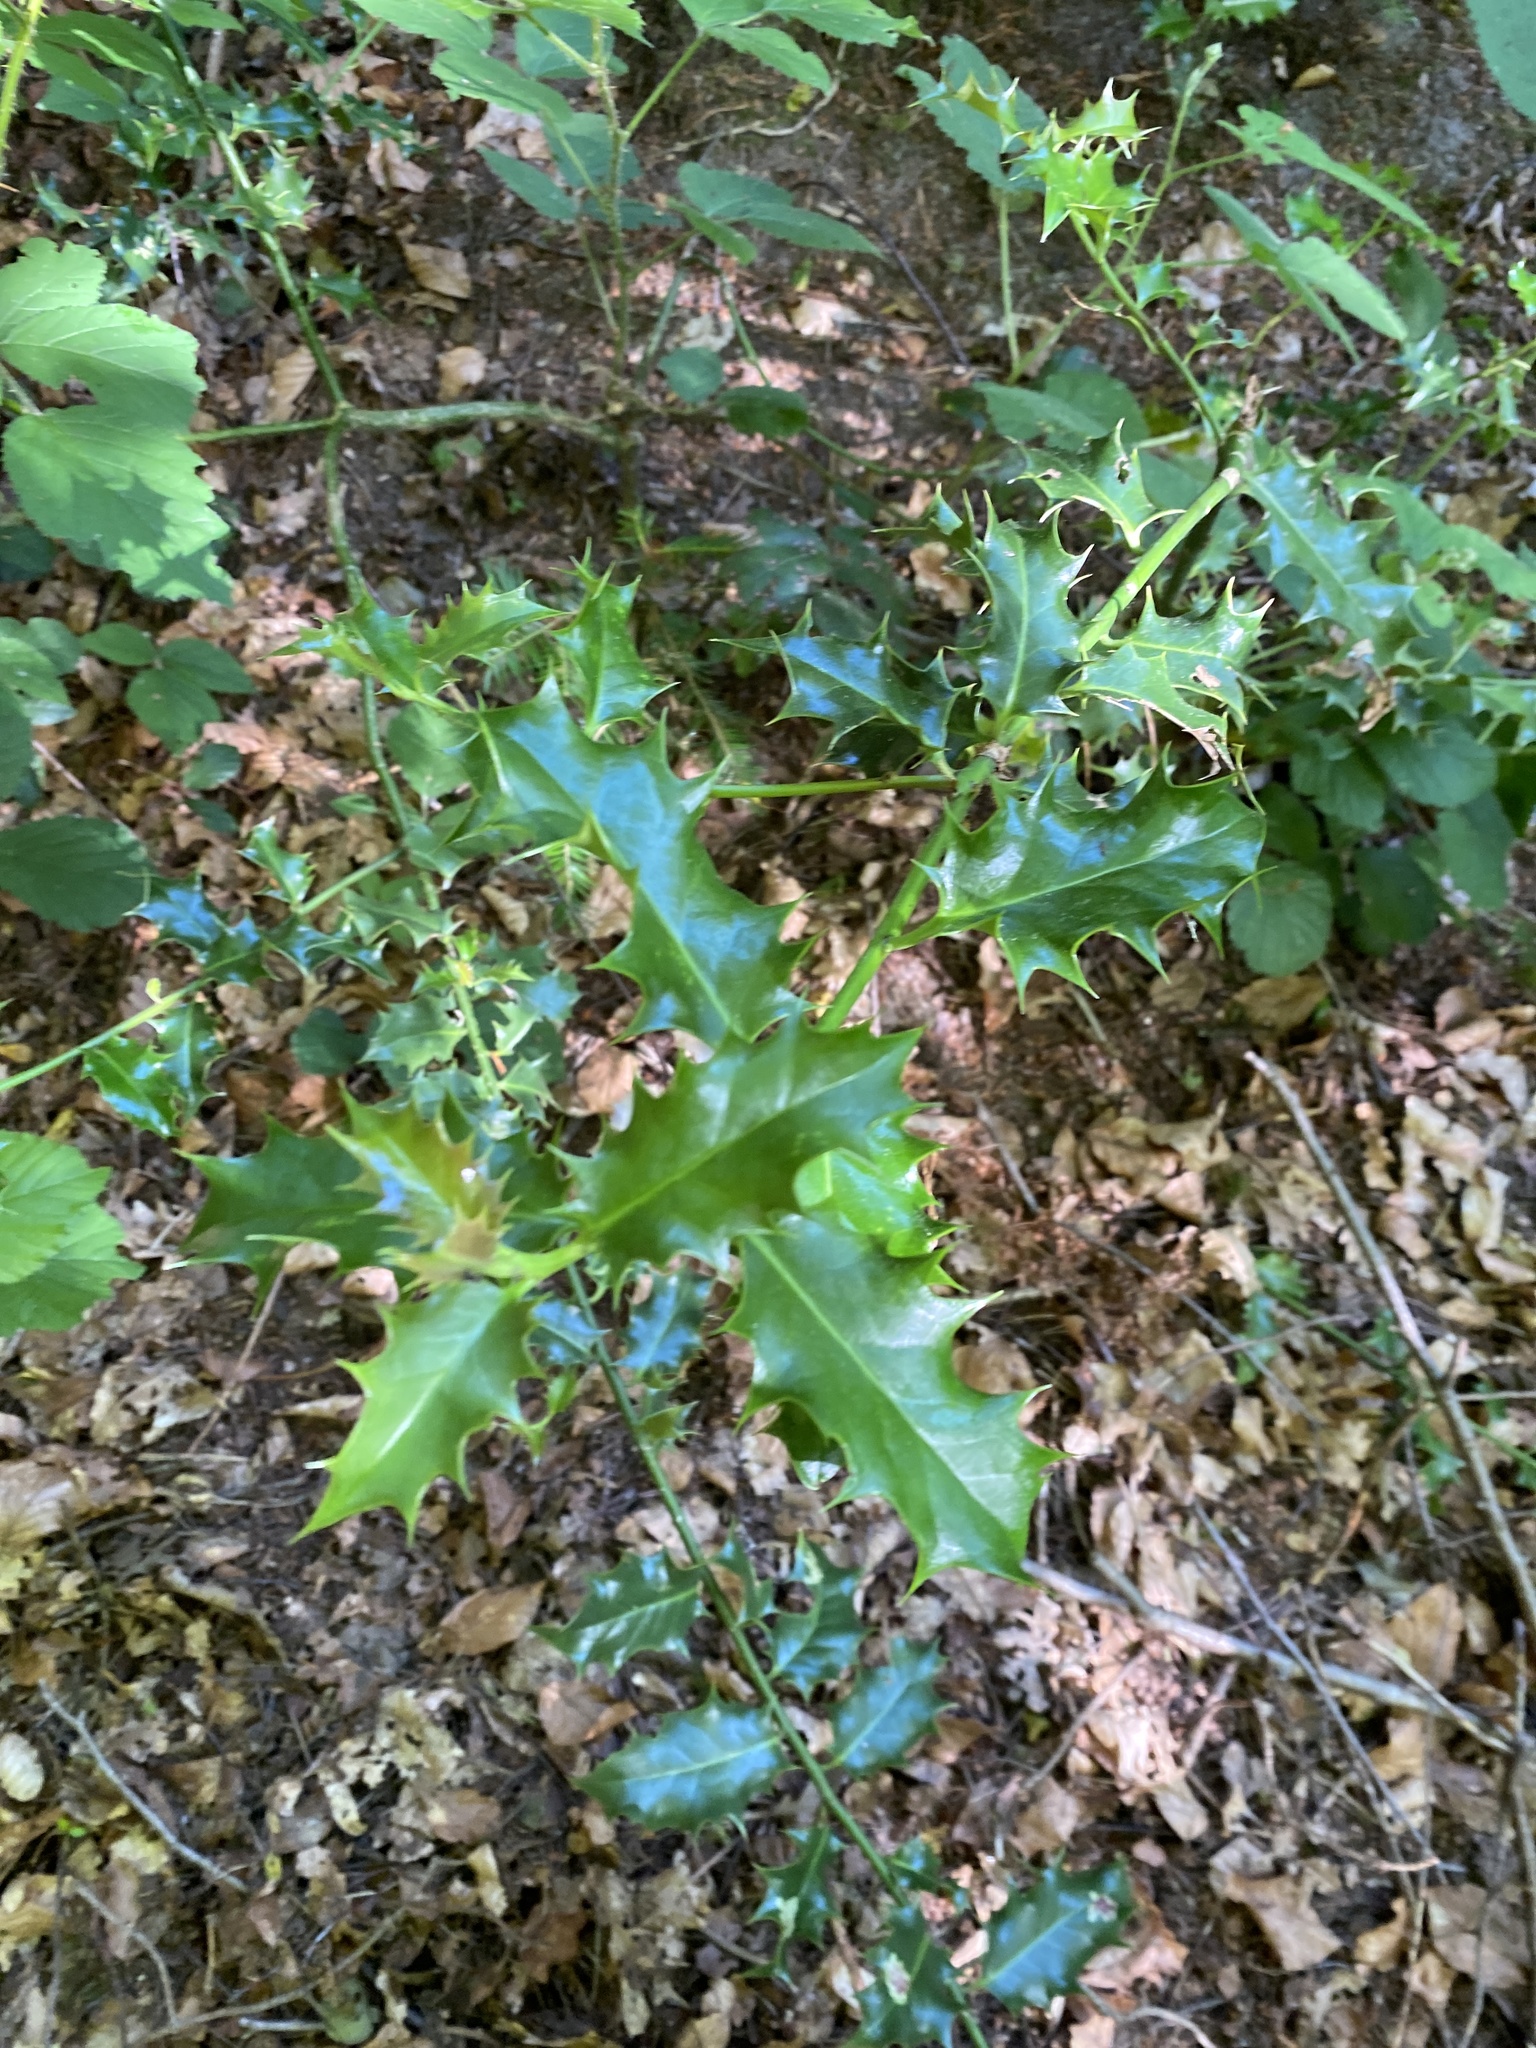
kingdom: Plantae
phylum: Tracheophyta
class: Magnoliopsida
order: Aquifoliales
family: Aquifoliaceae
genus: Ilex
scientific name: Ilex aquifolium
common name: English holly
